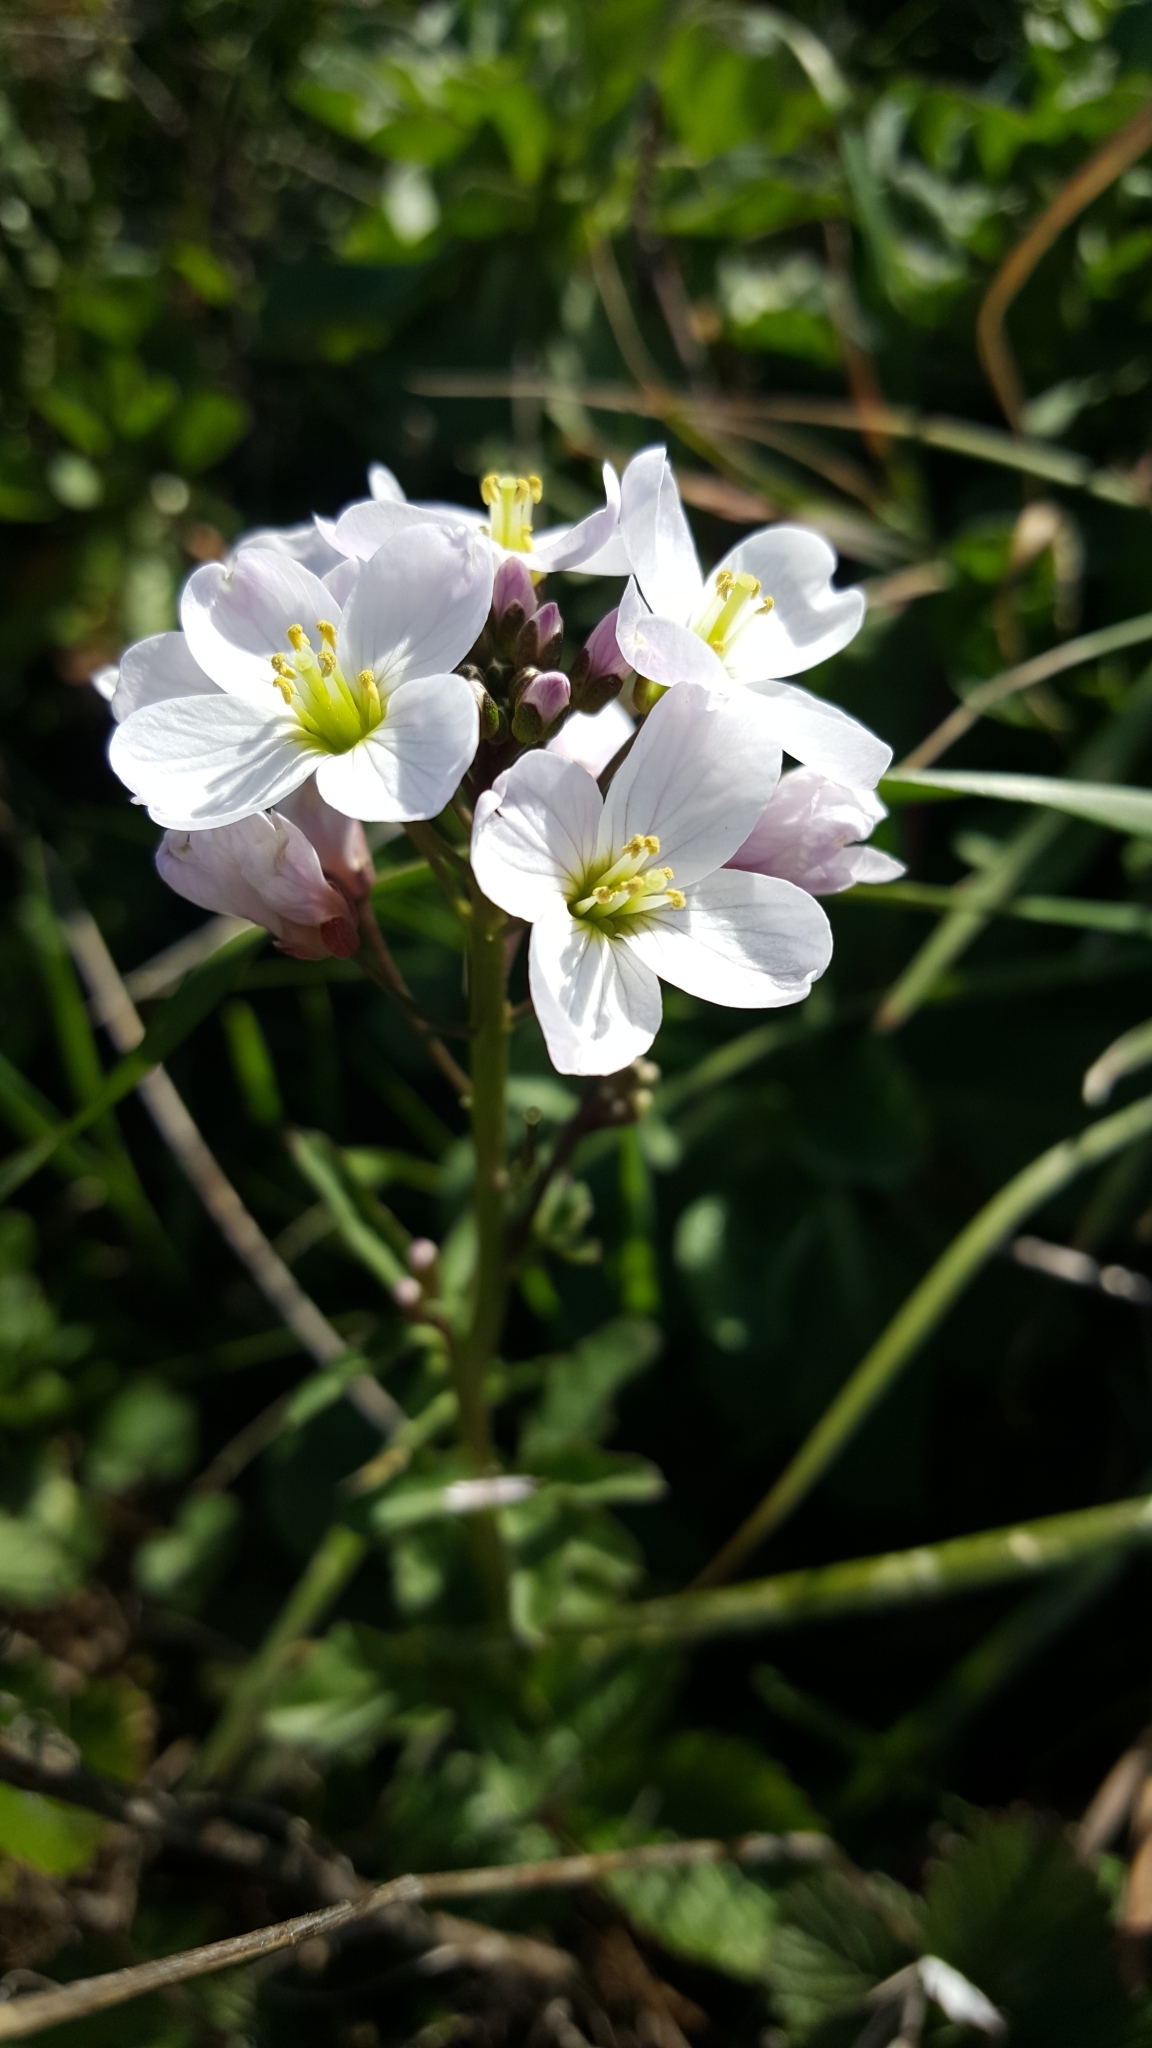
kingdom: Plantae
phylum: Tracheophyta
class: Magnoliopsida
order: Brassicales
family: Brassicaceae
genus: Cardamine
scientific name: Cardamine californica
